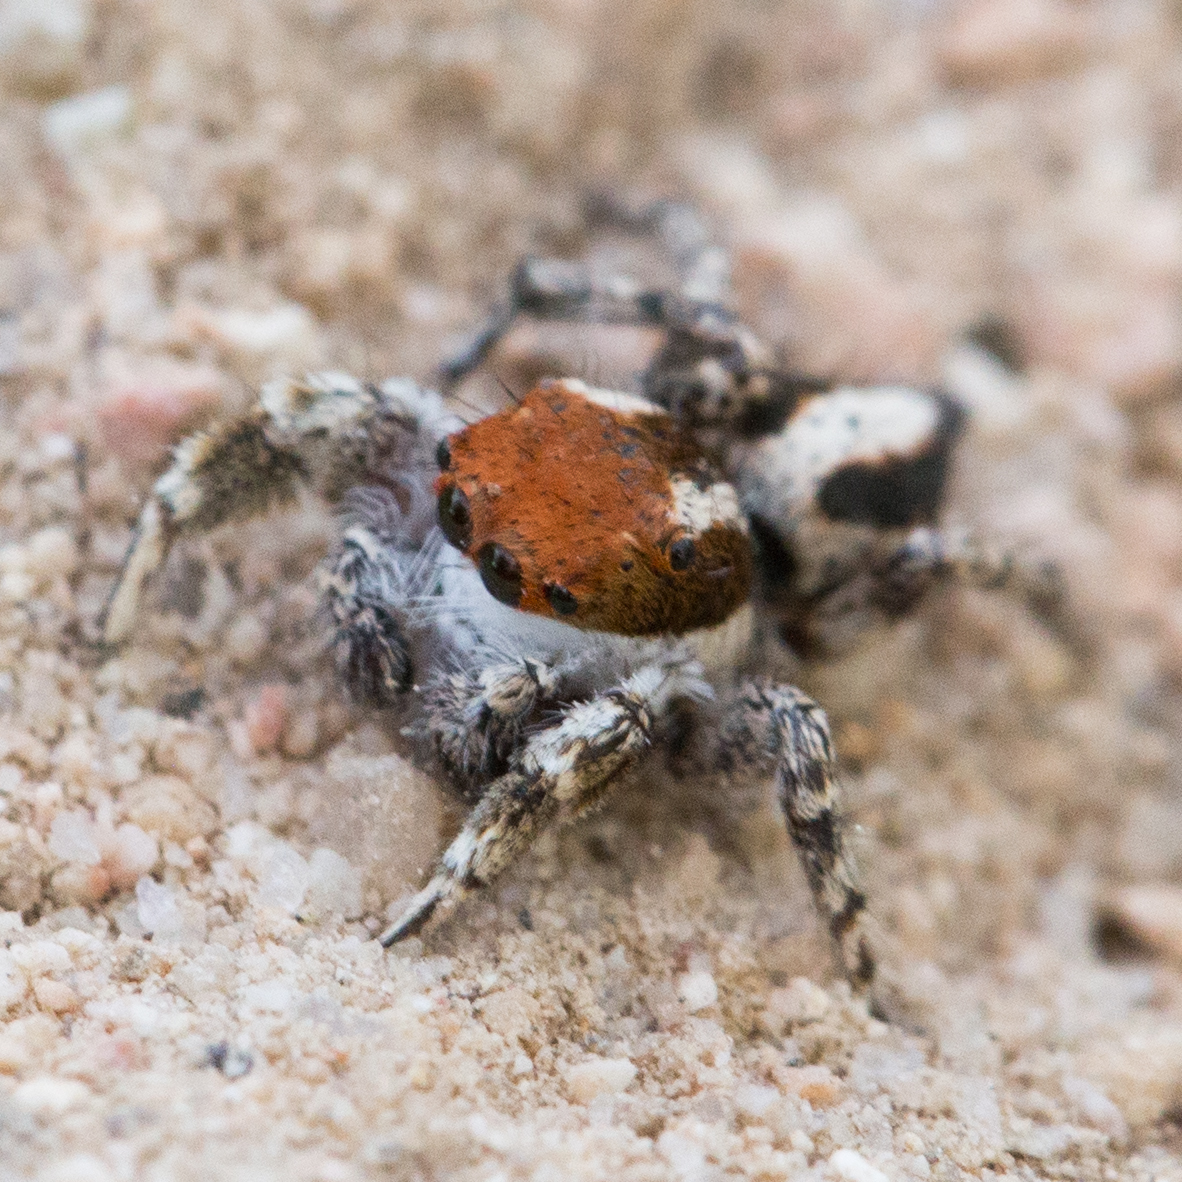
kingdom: Animalia
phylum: Arthropoda
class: Arachnida
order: Araneae
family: Salticidae
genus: Habronattus
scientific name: Habronattus conjunctus
